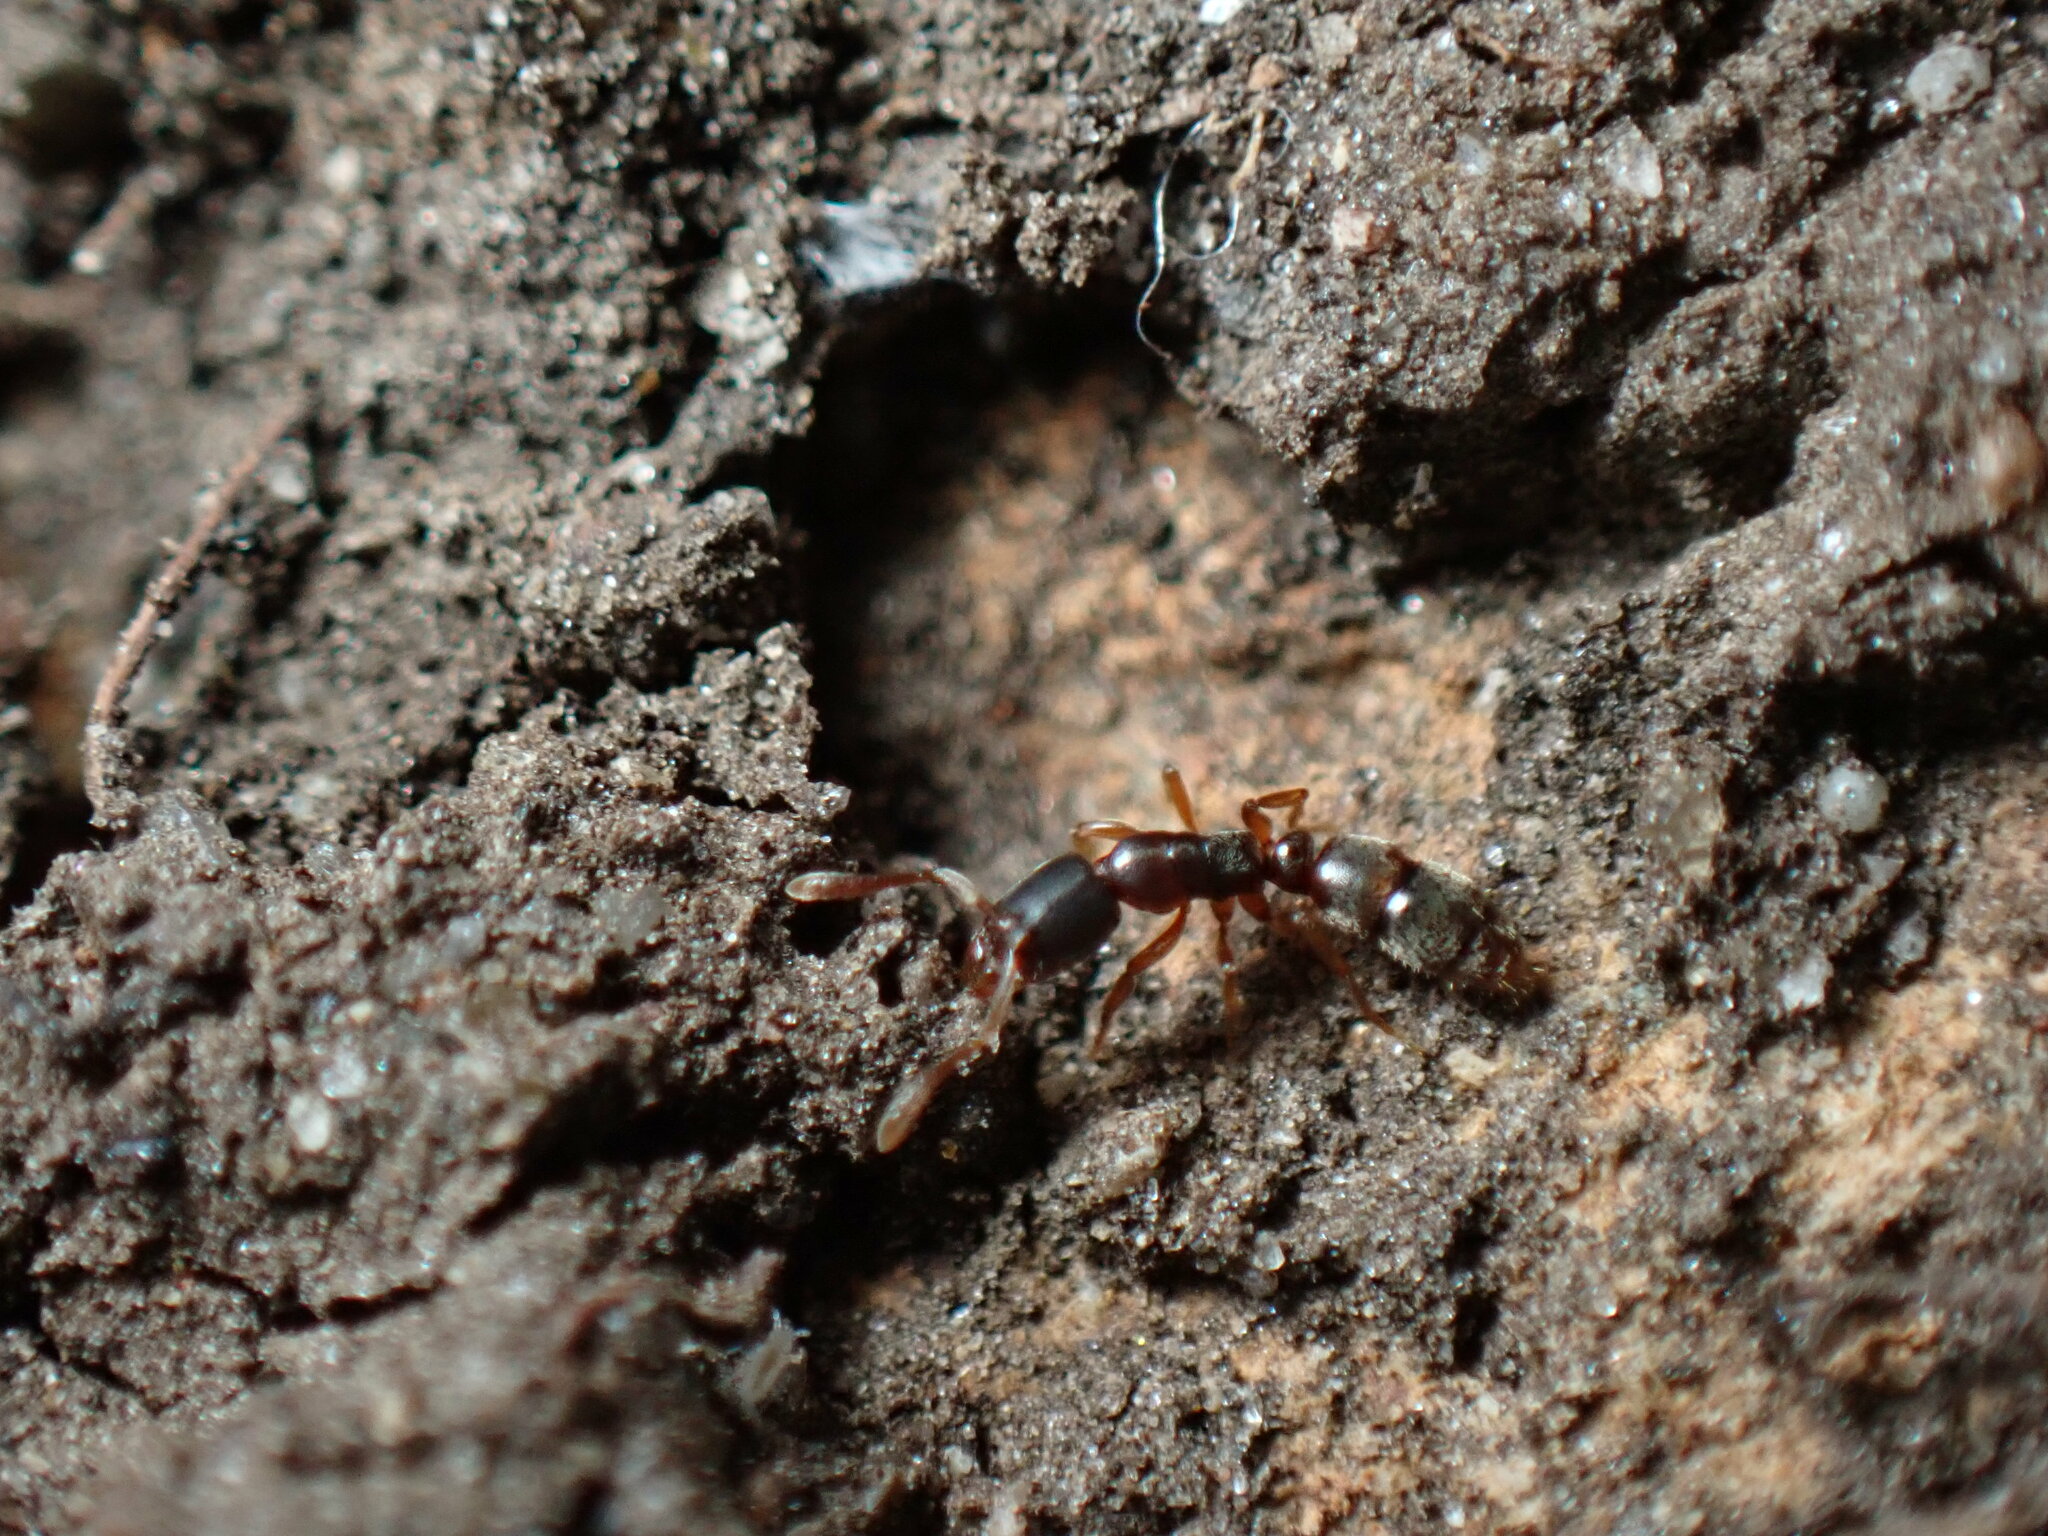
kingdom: Animalia
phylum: Arthropoda
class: Insecta
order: Hymenoptera
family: Formicidae
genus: Ponera
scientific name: Ponera pennsylvanica
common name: Pennsylvania ponera
